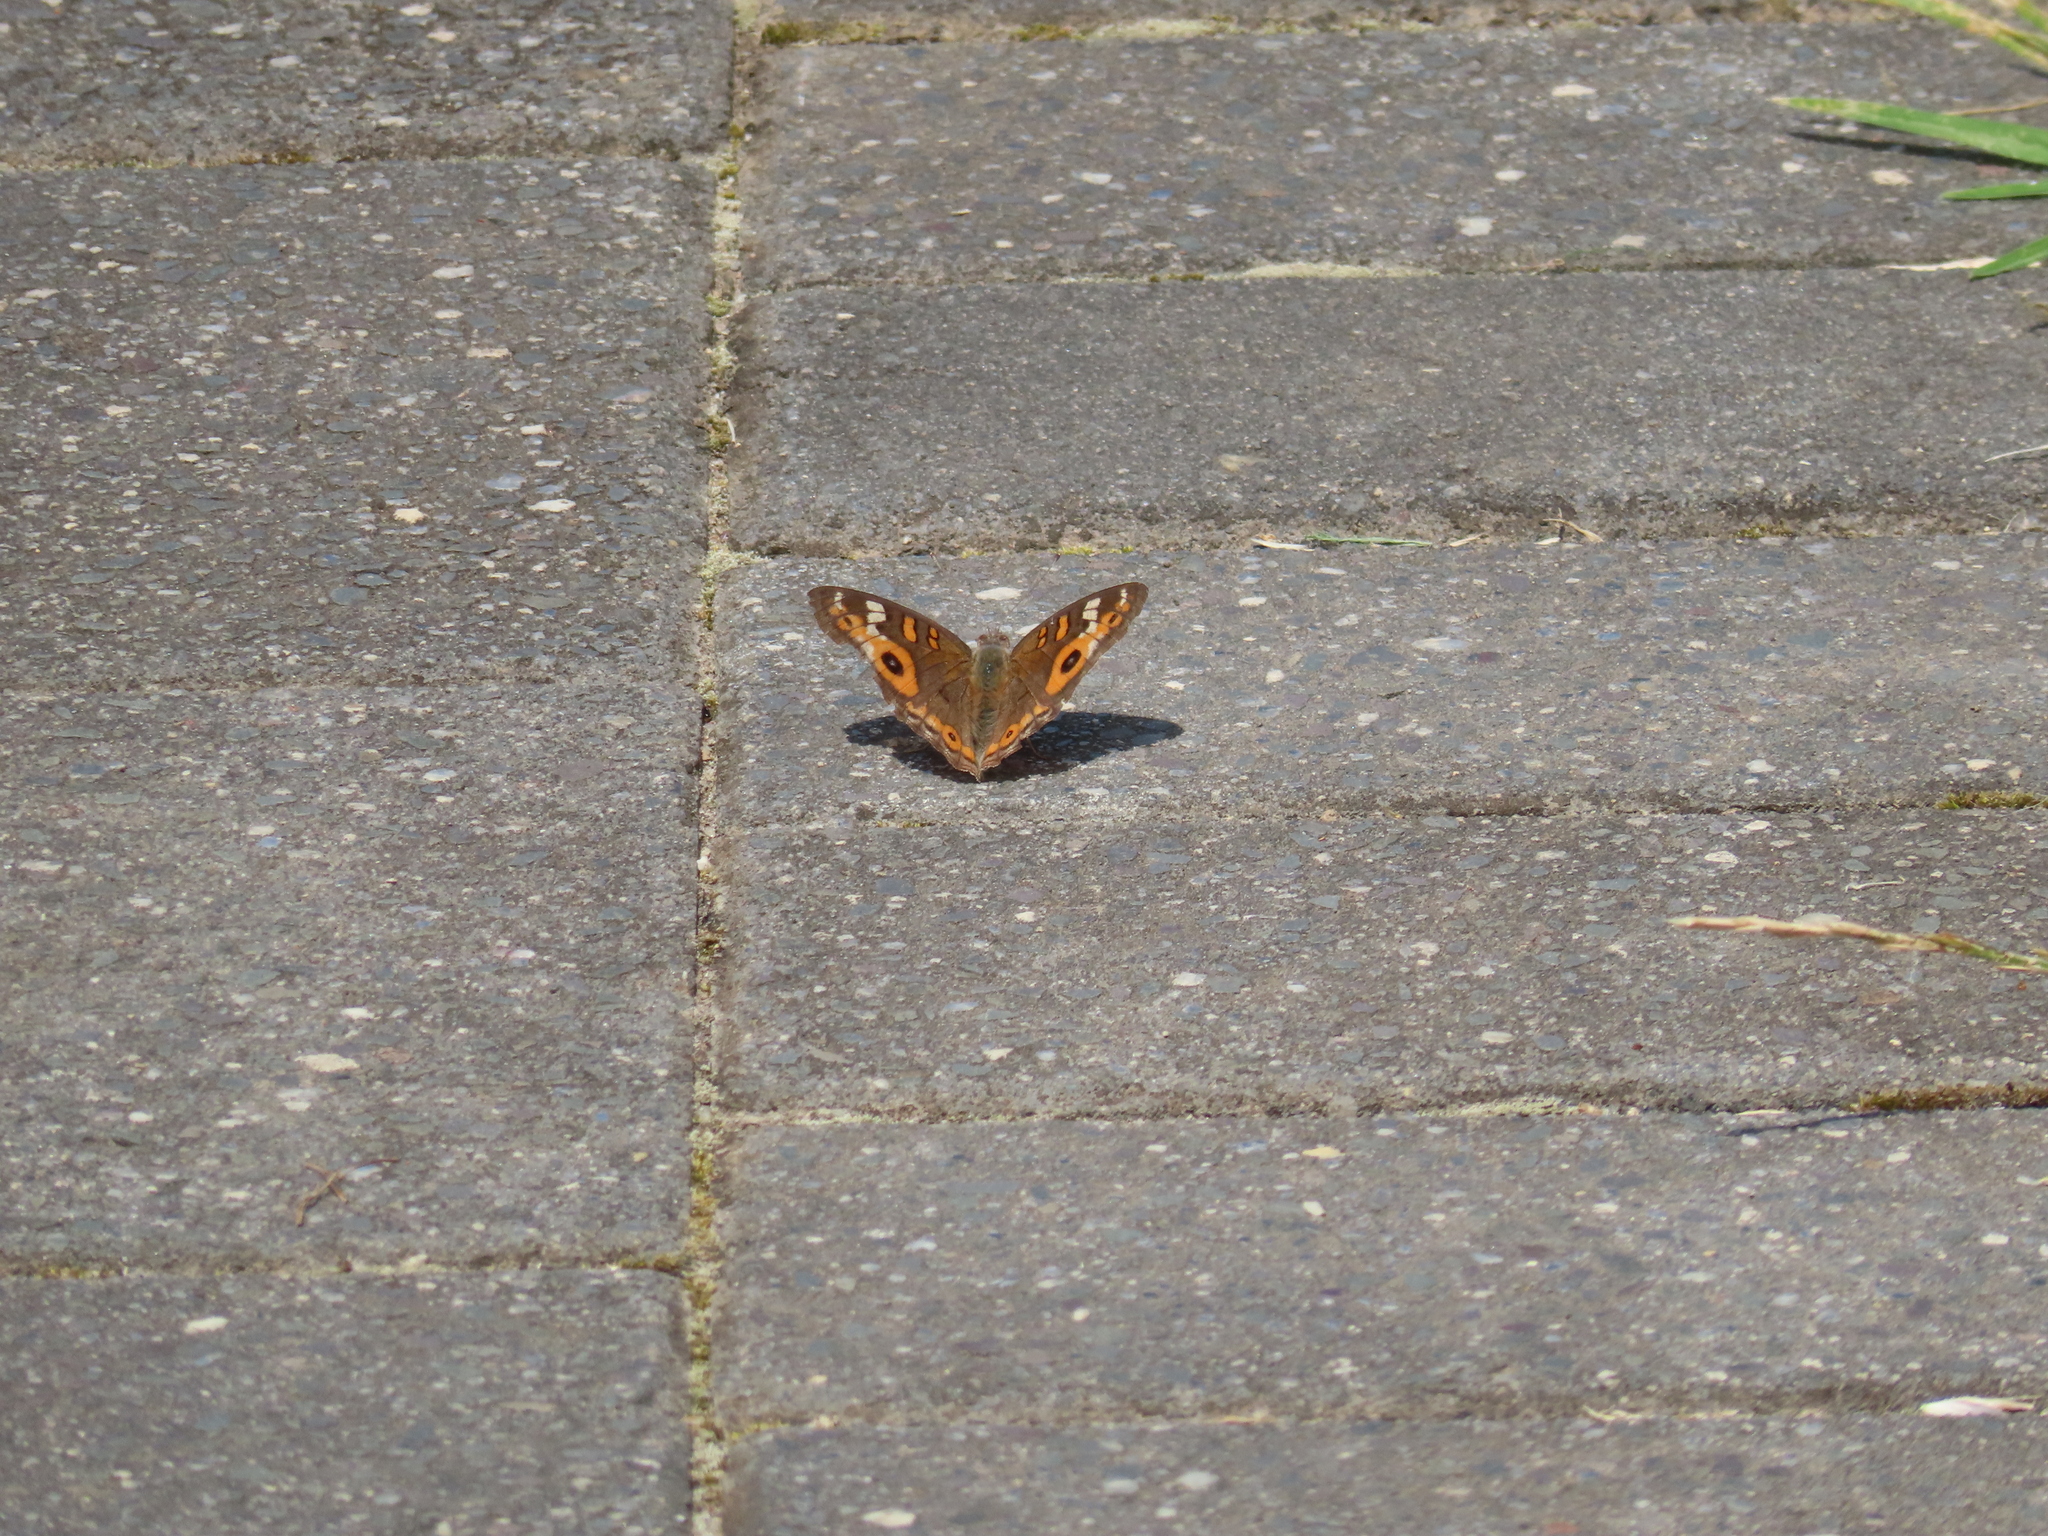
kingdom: Animalia
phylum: Arthropoda
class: Insecta
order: Lepidoptera
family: Nymphalidae
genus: Junonia
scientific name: Junonia villida
